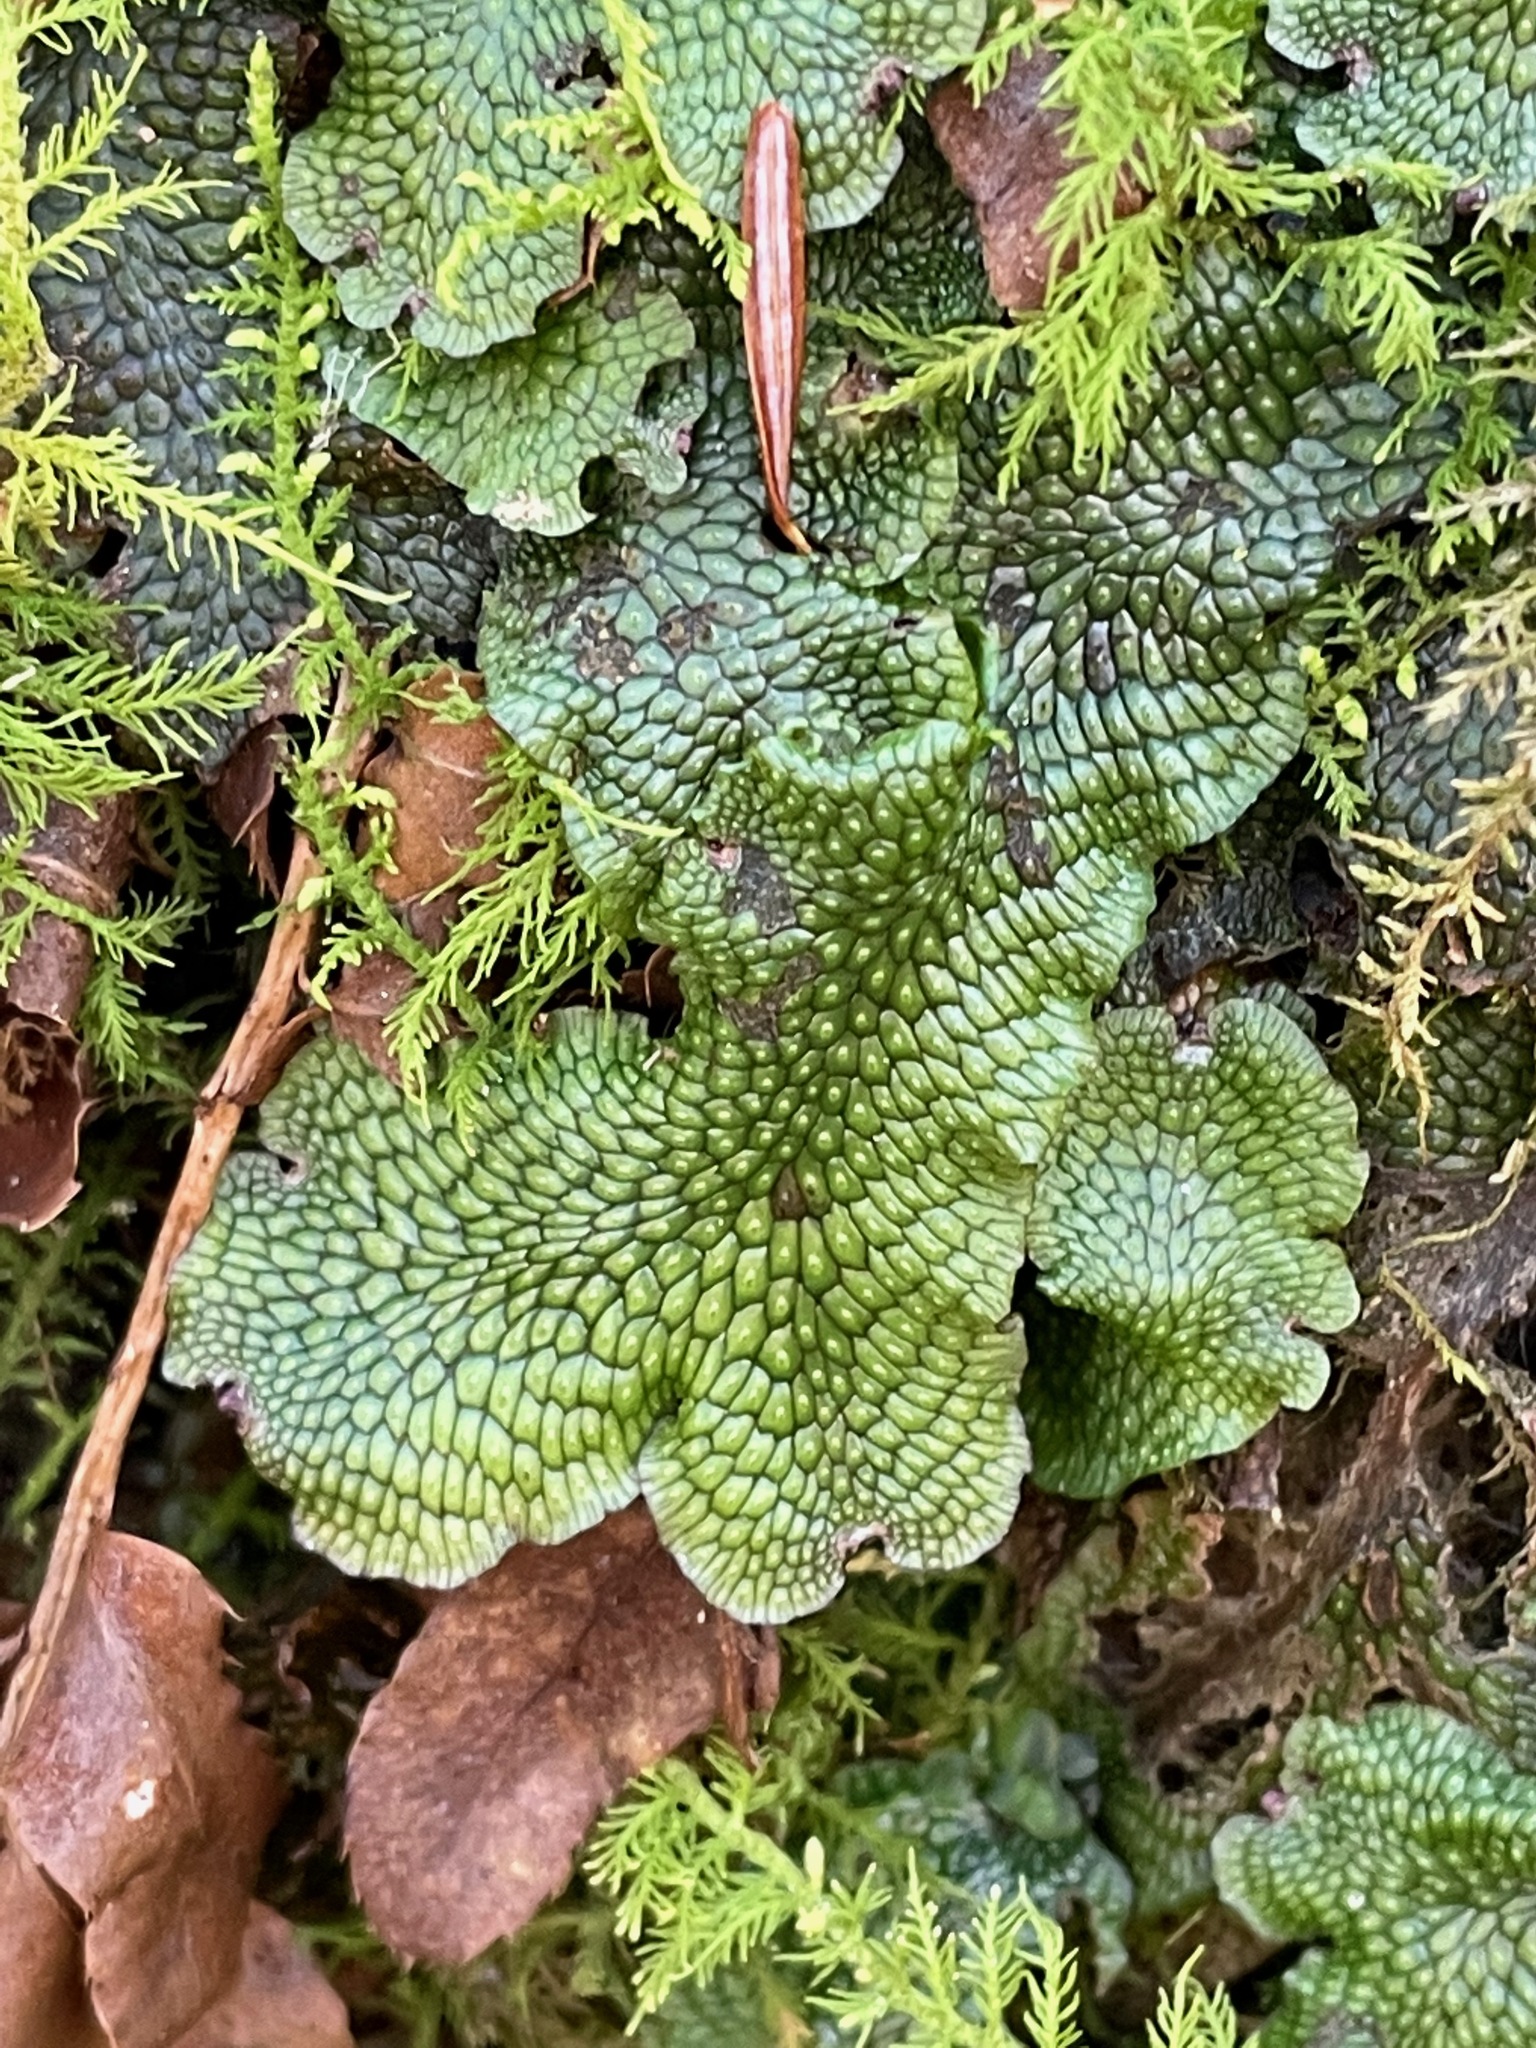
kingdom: Plantae
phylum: Marchantiophyta
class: Marchantiopsida
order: Marchantiales
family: Conocephalaceae
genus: Conocephalum
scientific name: Conocephalum salebrosum
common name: Cat-tongue liverwort
